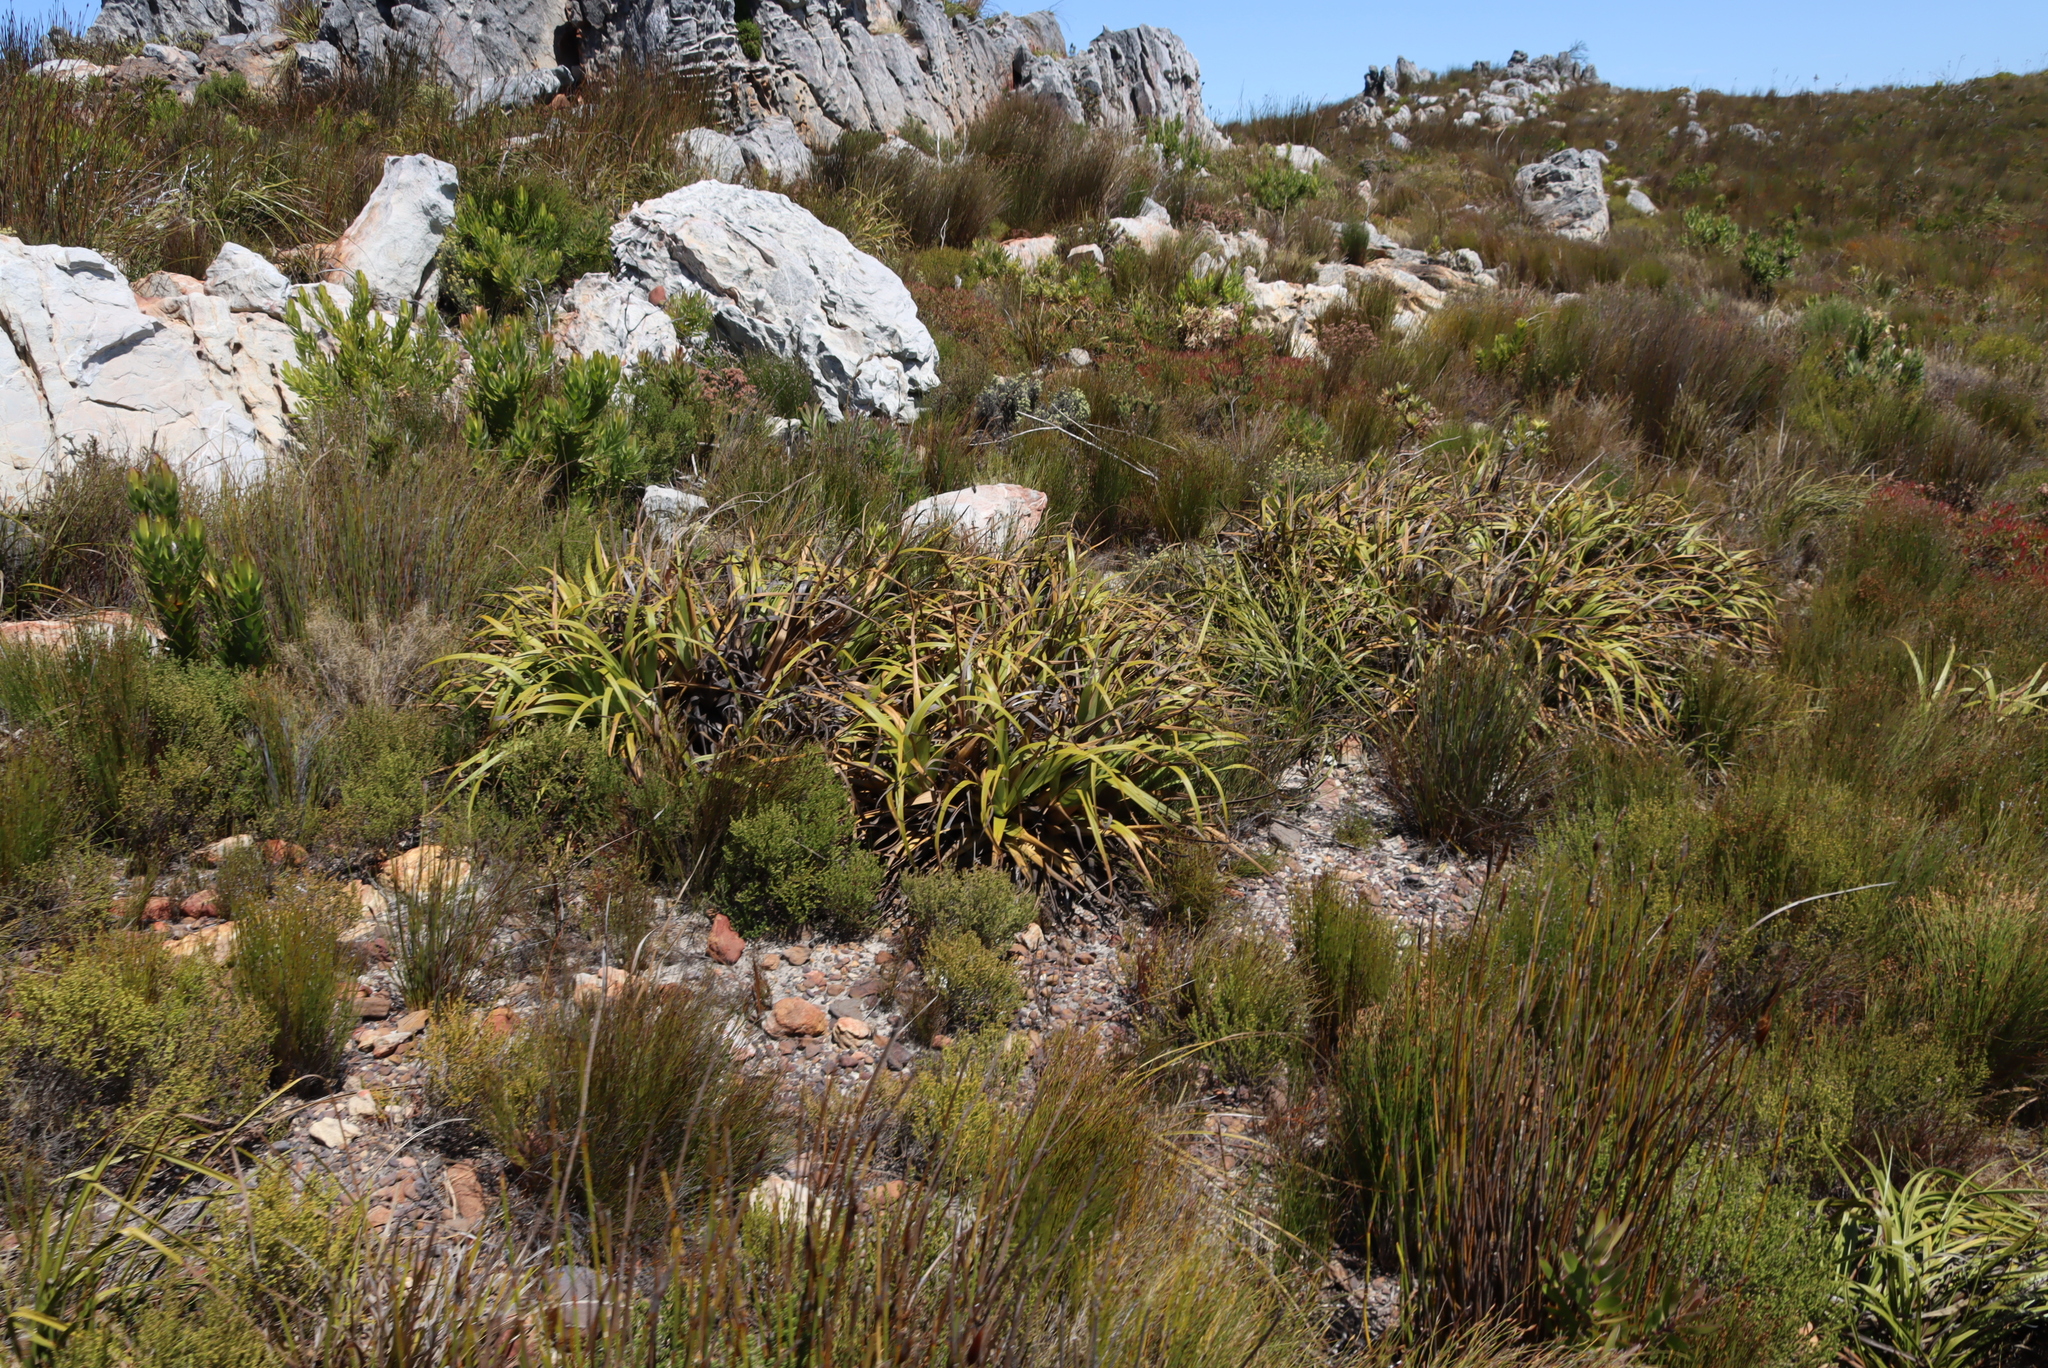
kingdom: Plantae
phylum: Tracheophyta
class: Liliopsida
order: Poales
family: Cyperaceae
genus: Tetraria
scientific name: Tetraria thermalis
